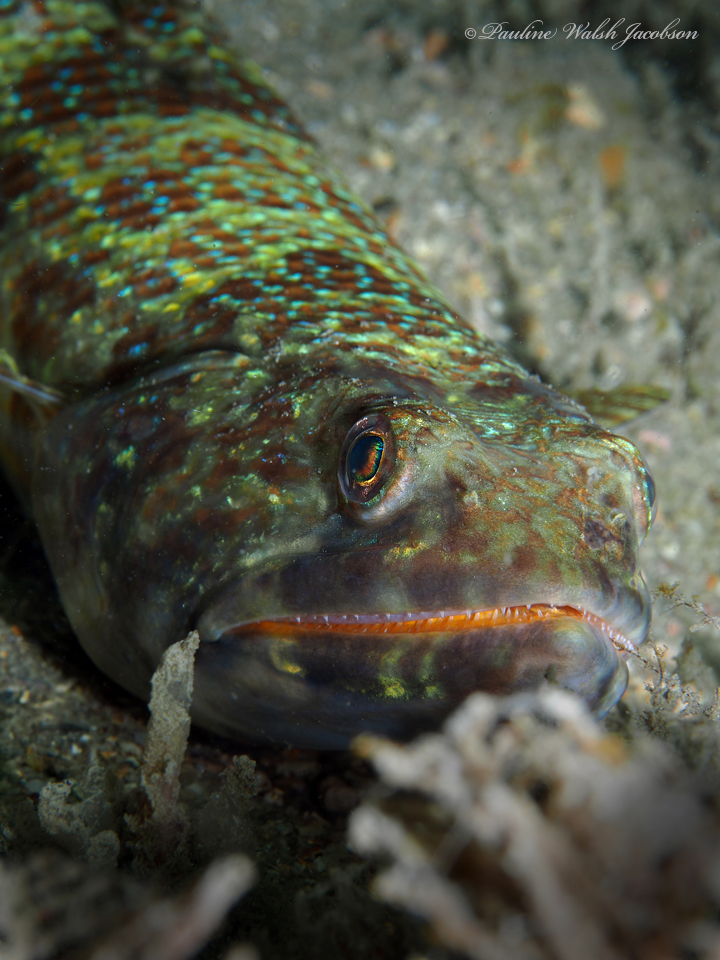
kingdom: Animalia
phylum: Chordata
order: Aulopiformes
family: Synodontidae
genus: Synodus
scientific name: Synodus intermedius
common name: Sand diver
